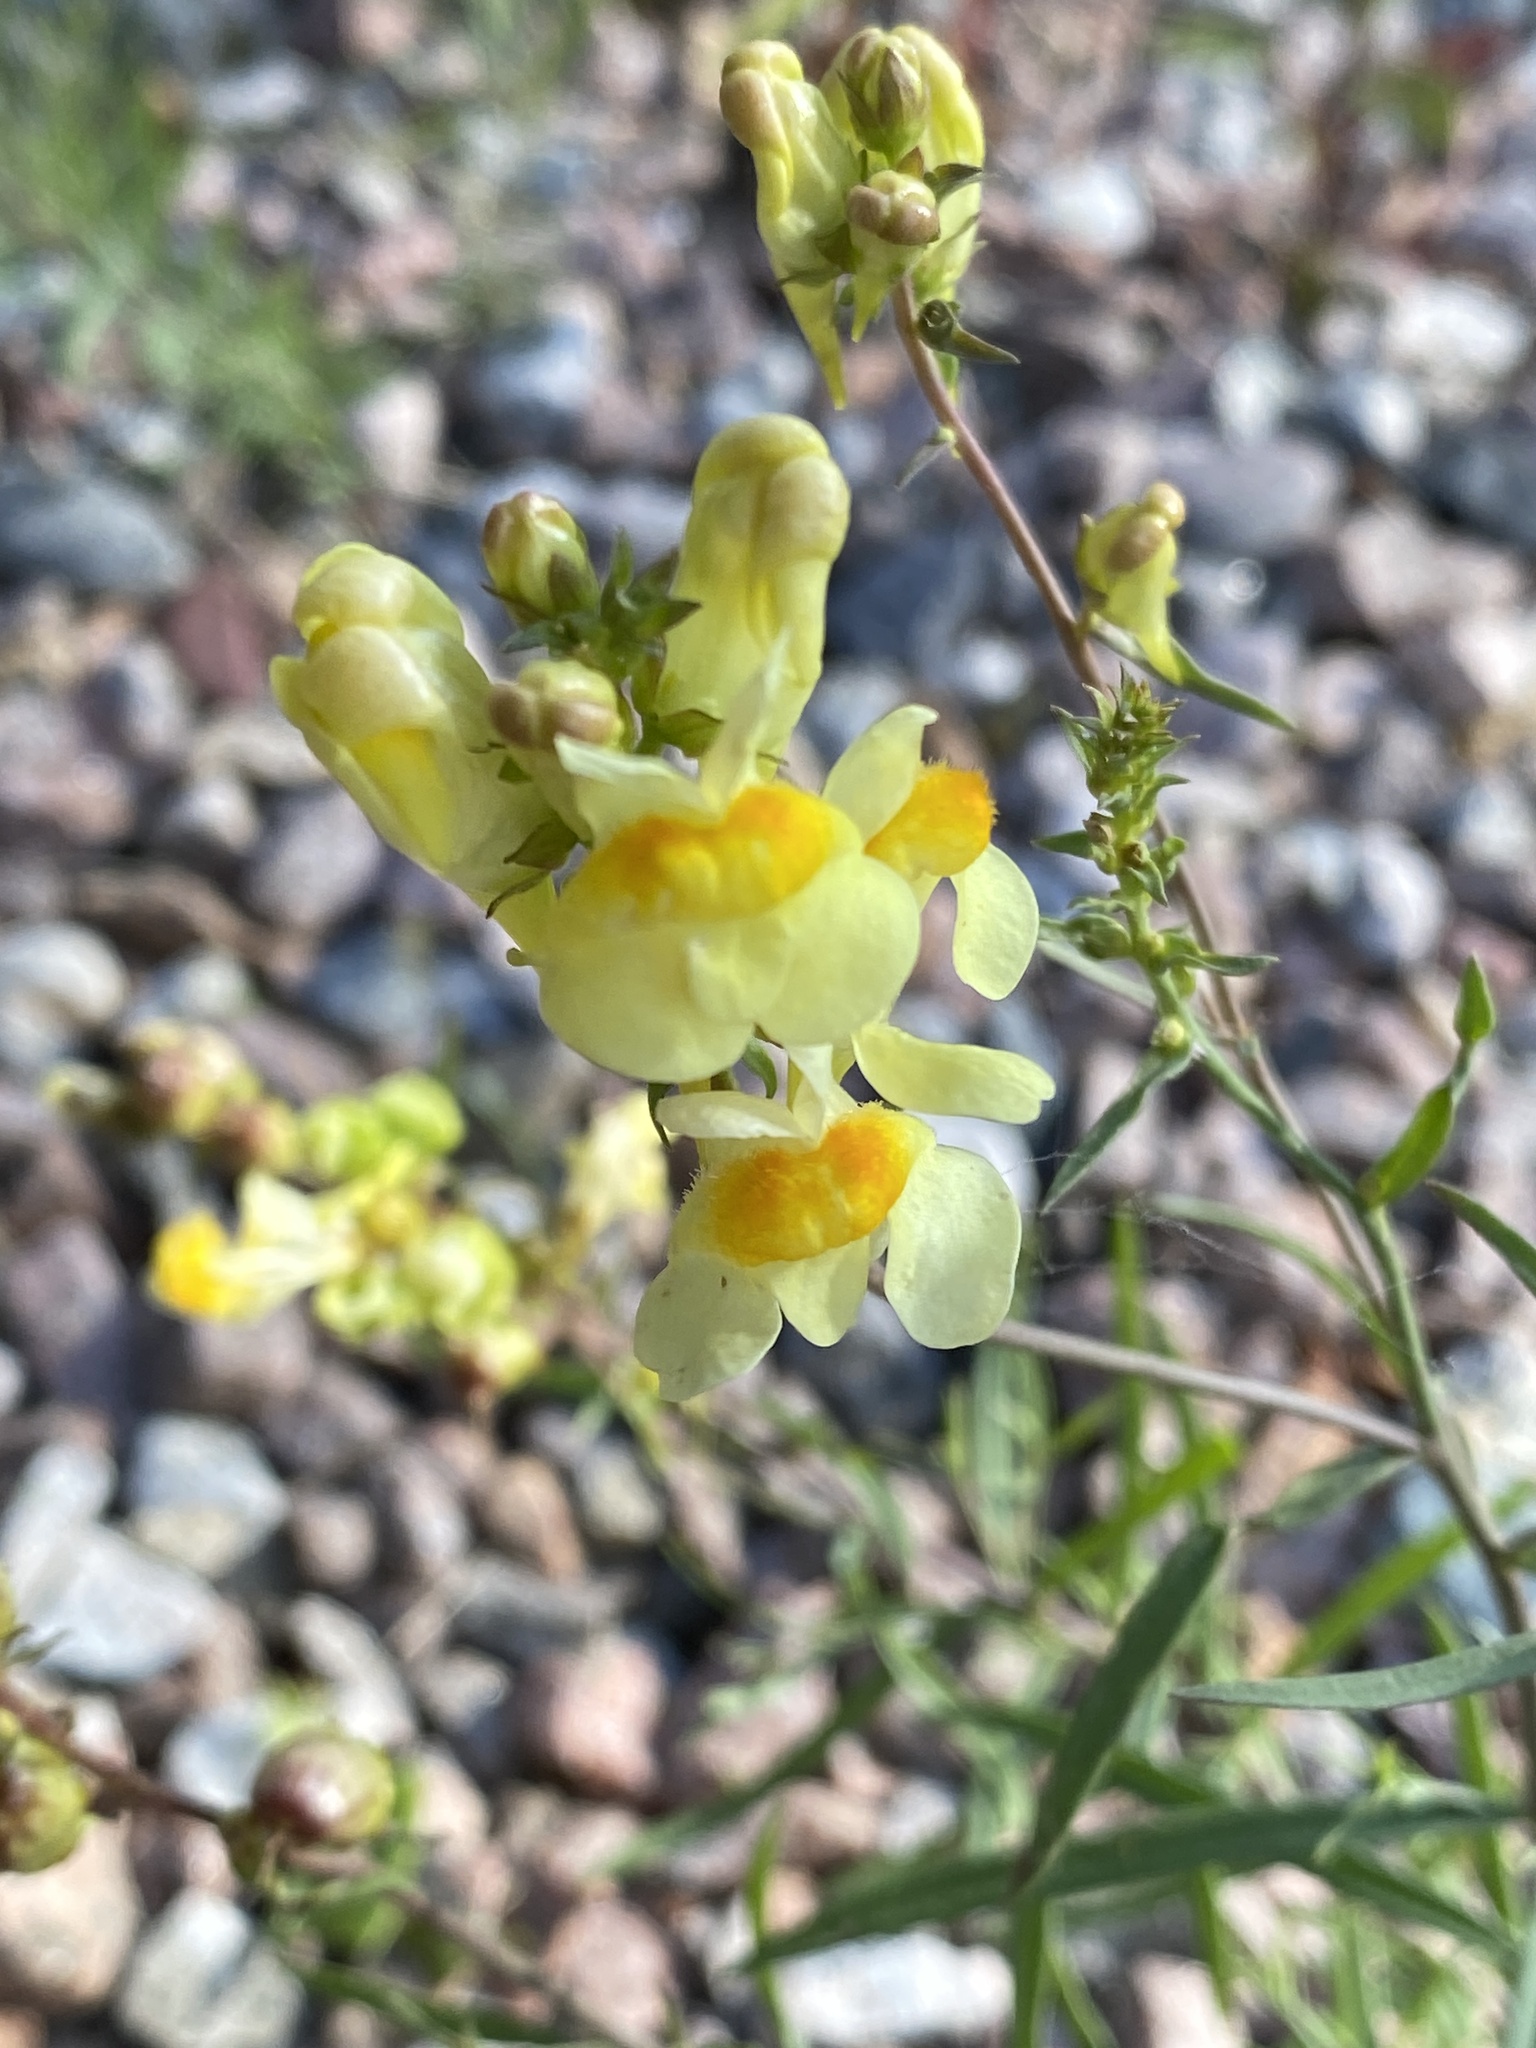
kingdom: Plantae
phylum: Tracheophyta
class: Magnoliopsida
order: Lamiales
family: Plantaginaceae
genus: Linaria
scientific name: Linaria vulgaris
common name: Butter and eggs
